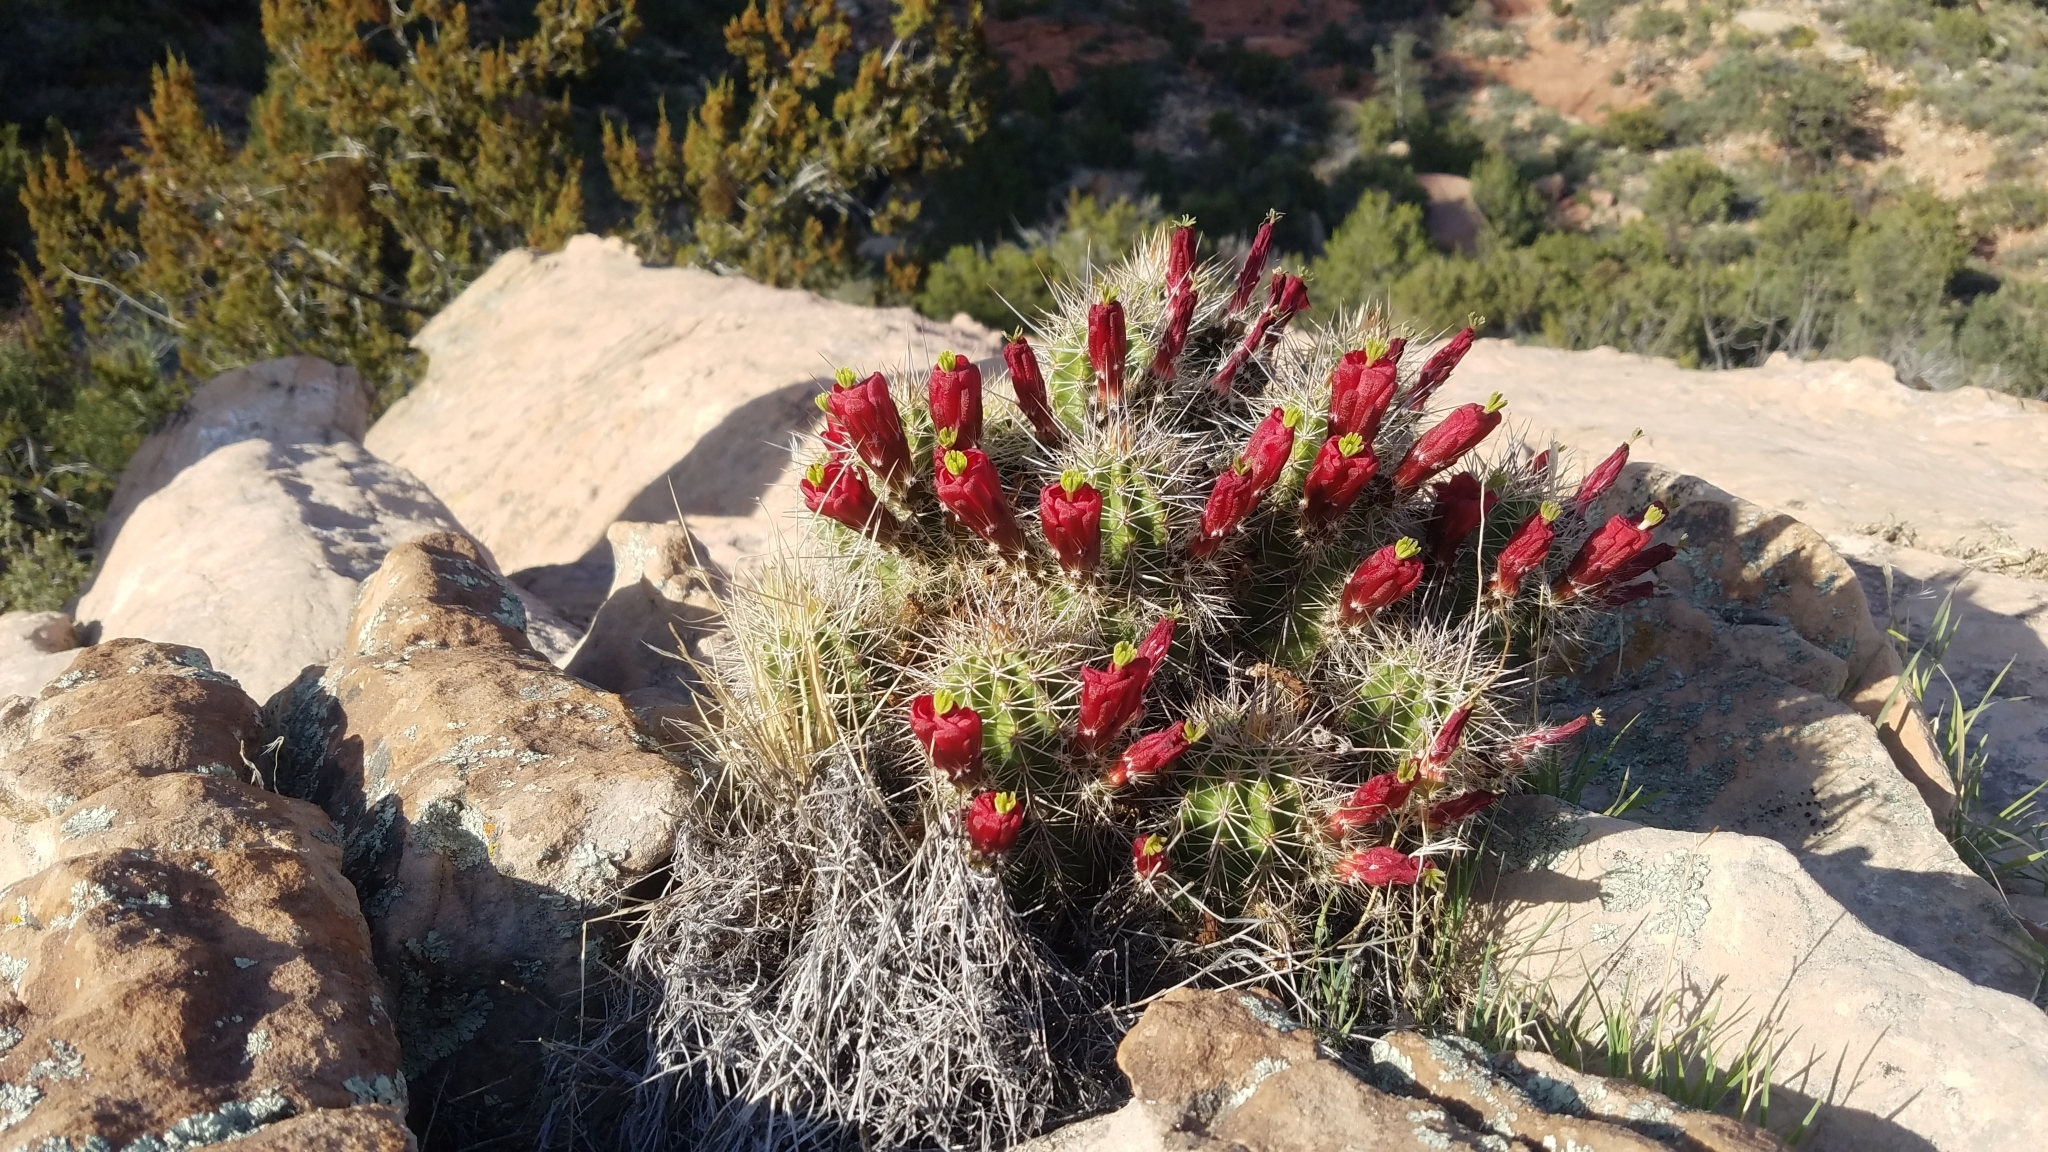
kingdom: Plantae
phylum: Tracheophyta
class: Magnoliopsida
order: Caryophyllales
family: Cactaceae
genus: Echinocereus
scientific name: Echinocereus bakeri
